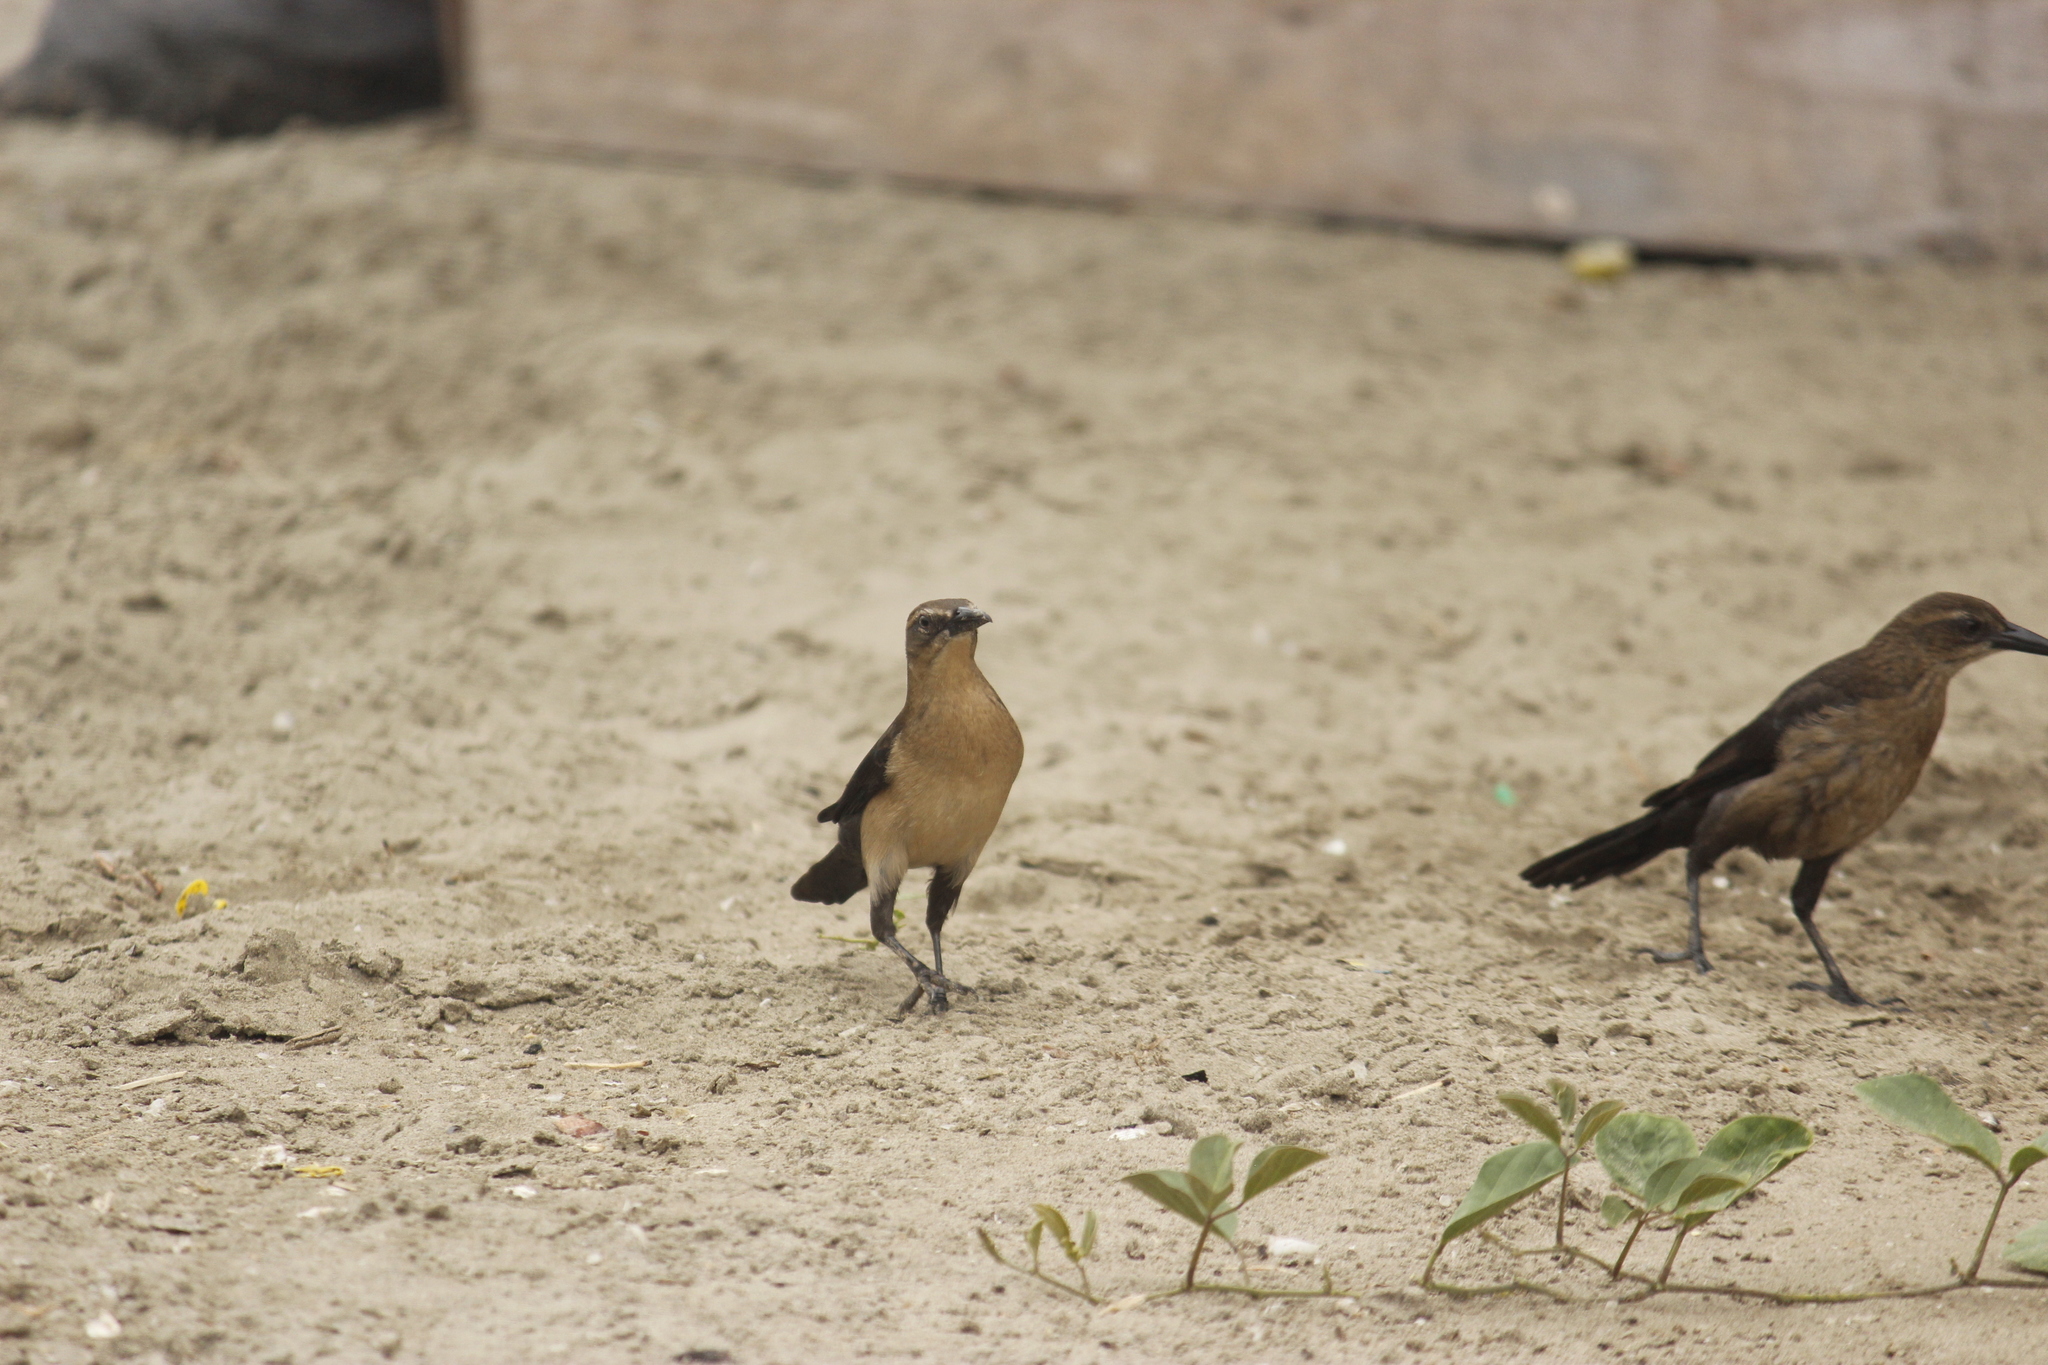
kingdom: Animalia
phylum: Chordata
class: Aves
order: Passeriformes
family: Icteridae
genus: Quiscalus
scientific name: Quiscalus mexicanus
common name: Great-tailed grackle
